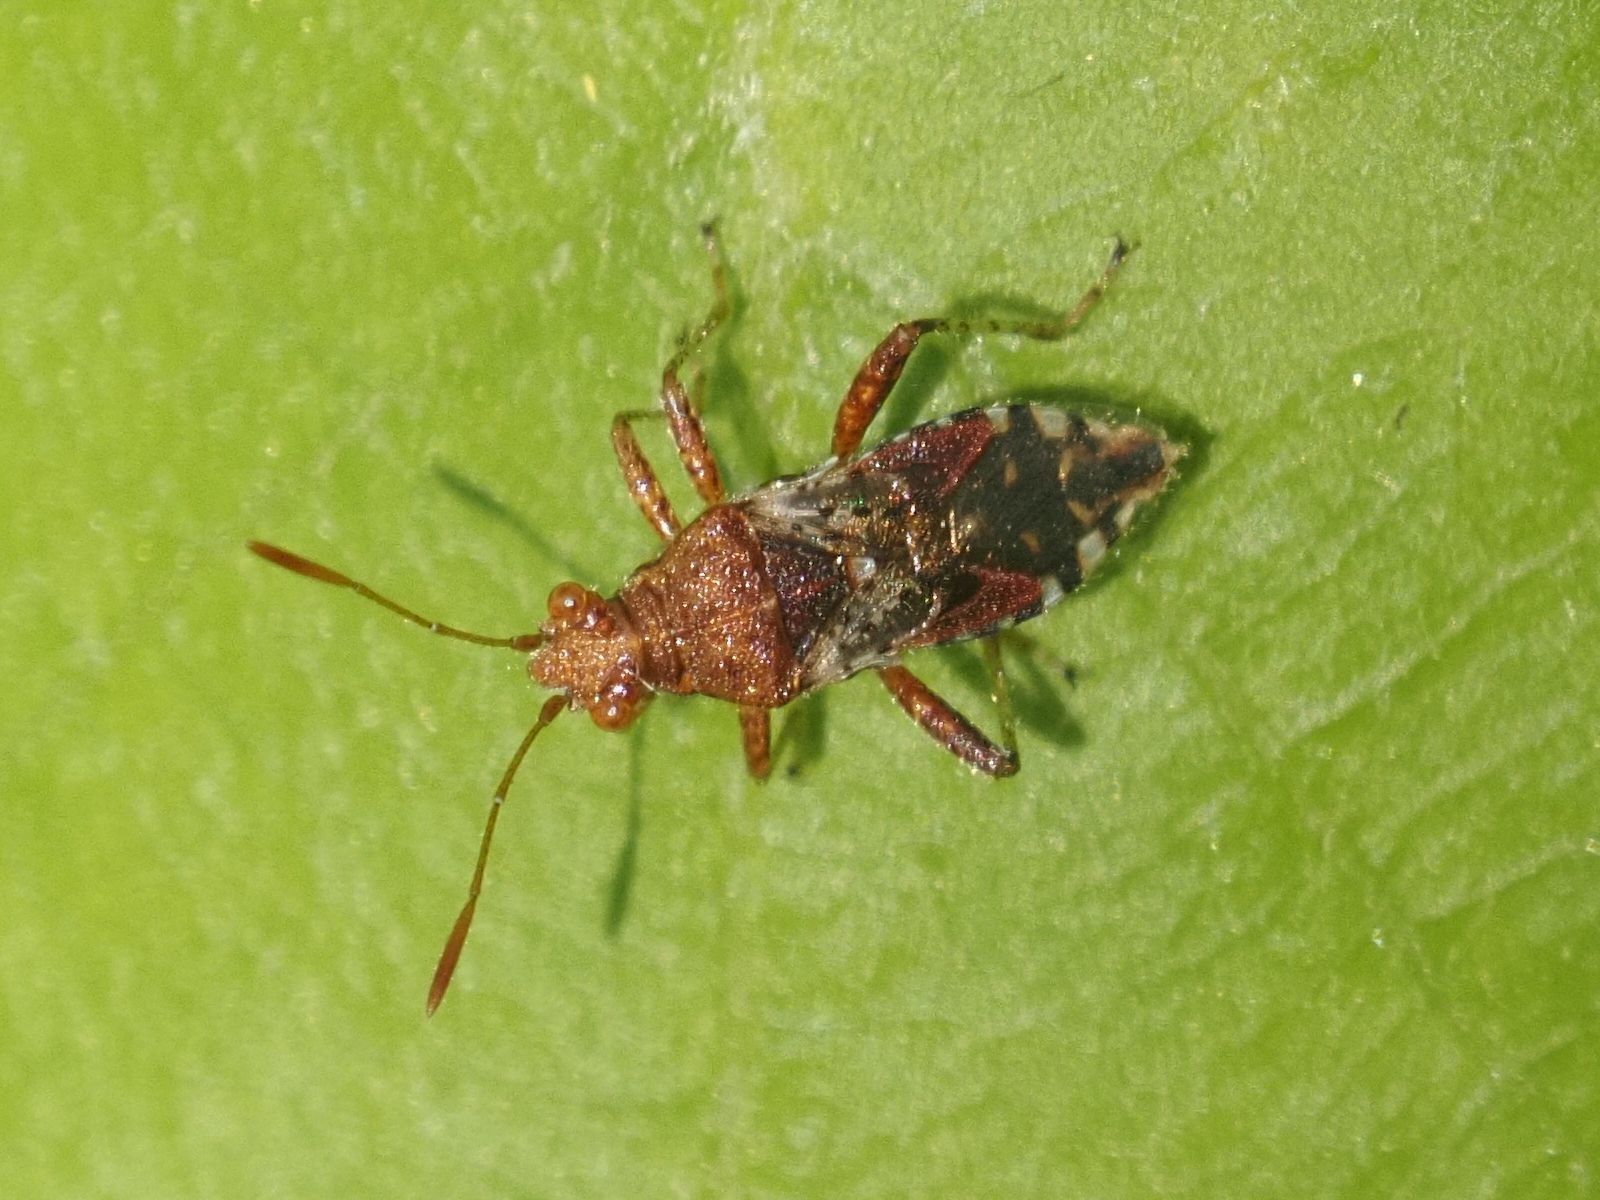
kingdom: Animalia
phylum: Arthropoda
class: Insecta
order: Hemiptera
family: Rhopalidae
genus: Rhopalus
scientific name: Rhopalus subrufus
